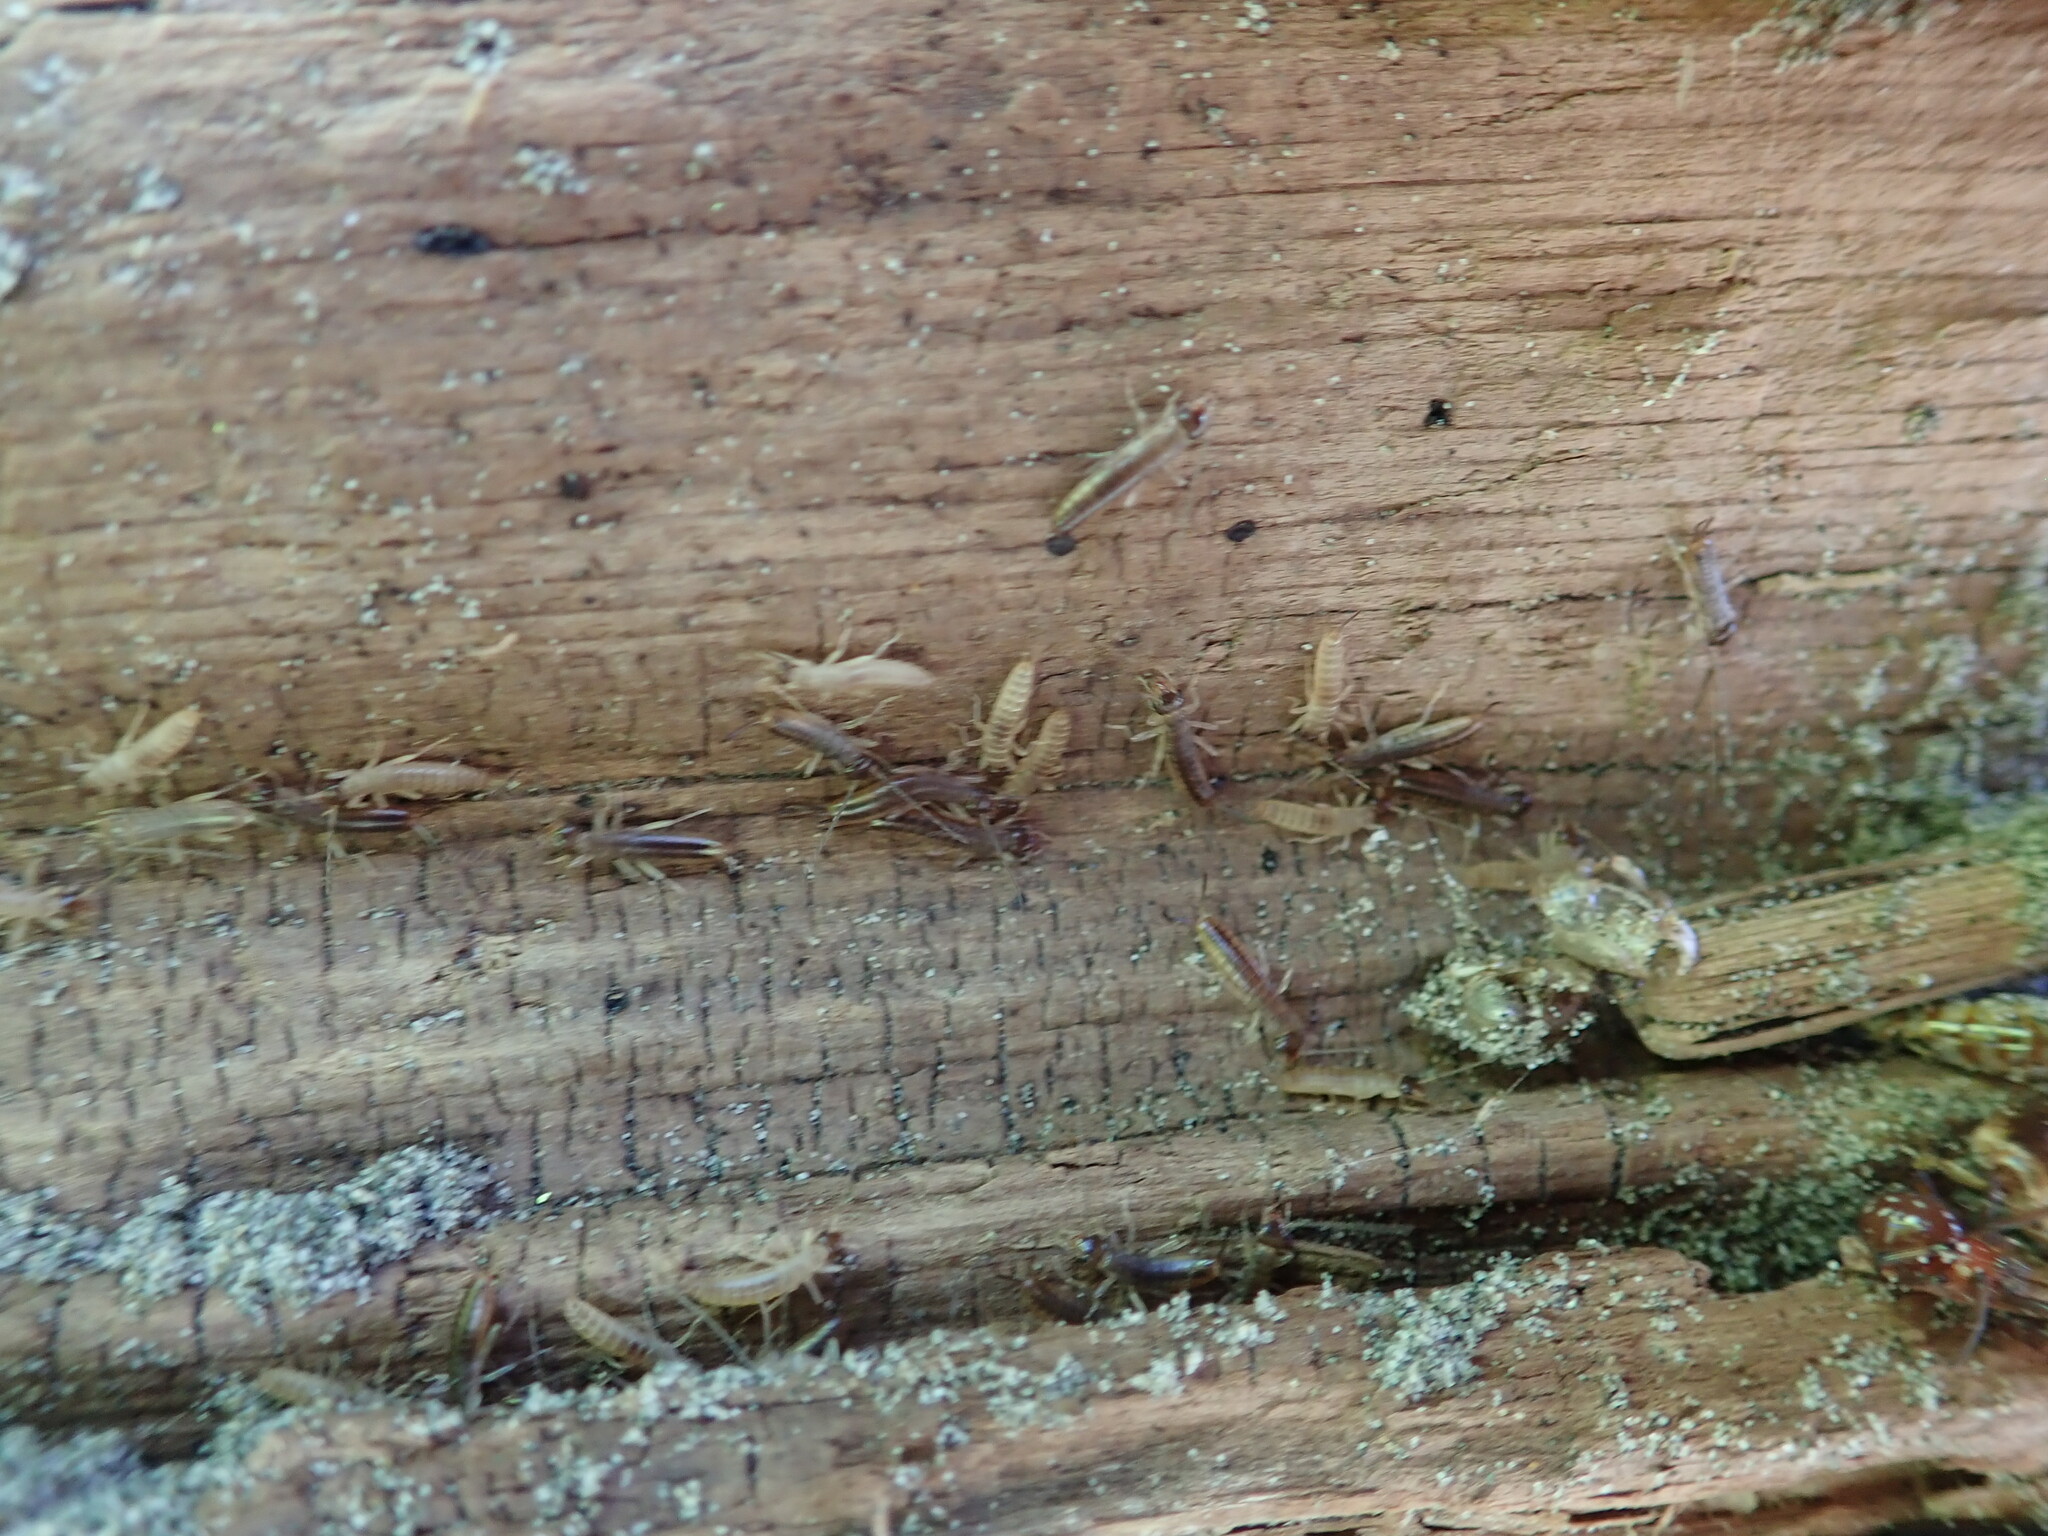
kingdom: Animalia
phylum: Arthropoda
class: Insecta
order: Dermaptera
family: Labiduridae
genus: Labidura
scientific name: Labidura riparia
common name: Striped earwig
